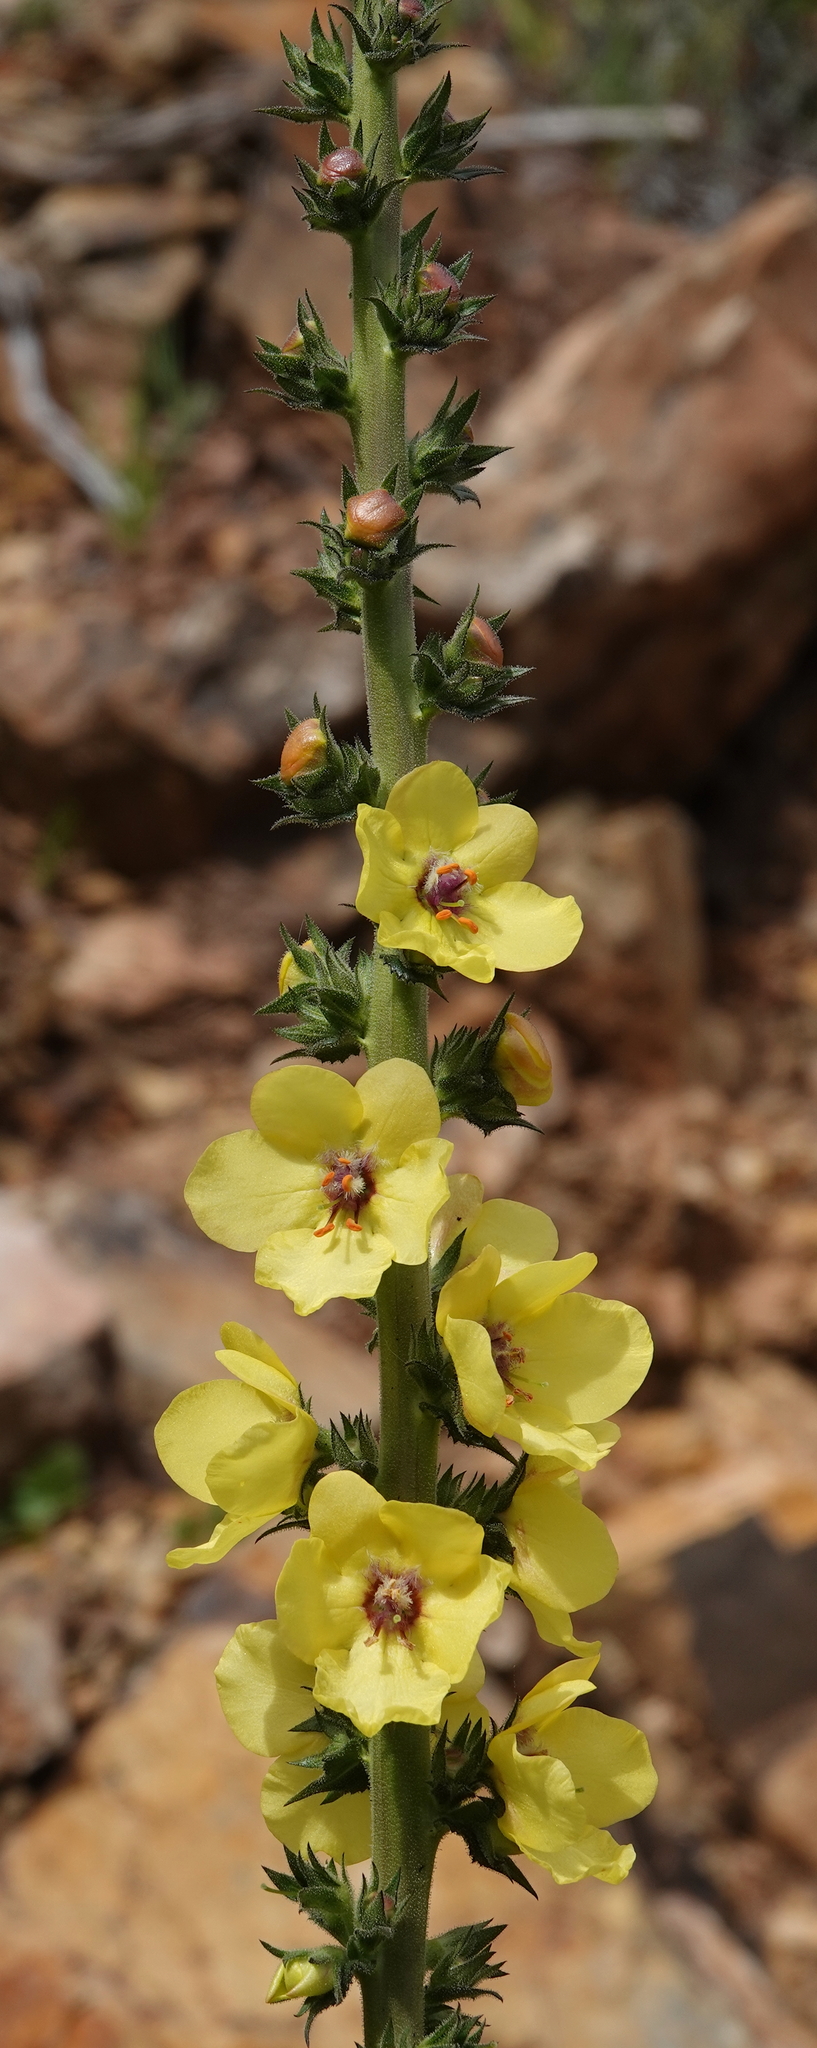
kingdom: Plantae
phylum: Tracheophyta
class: Magnoliopsida
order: Lamiales
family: Scrophulariaceae
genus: Verbascum
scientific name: Verbascum virgatum
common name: Twiggy mullein
